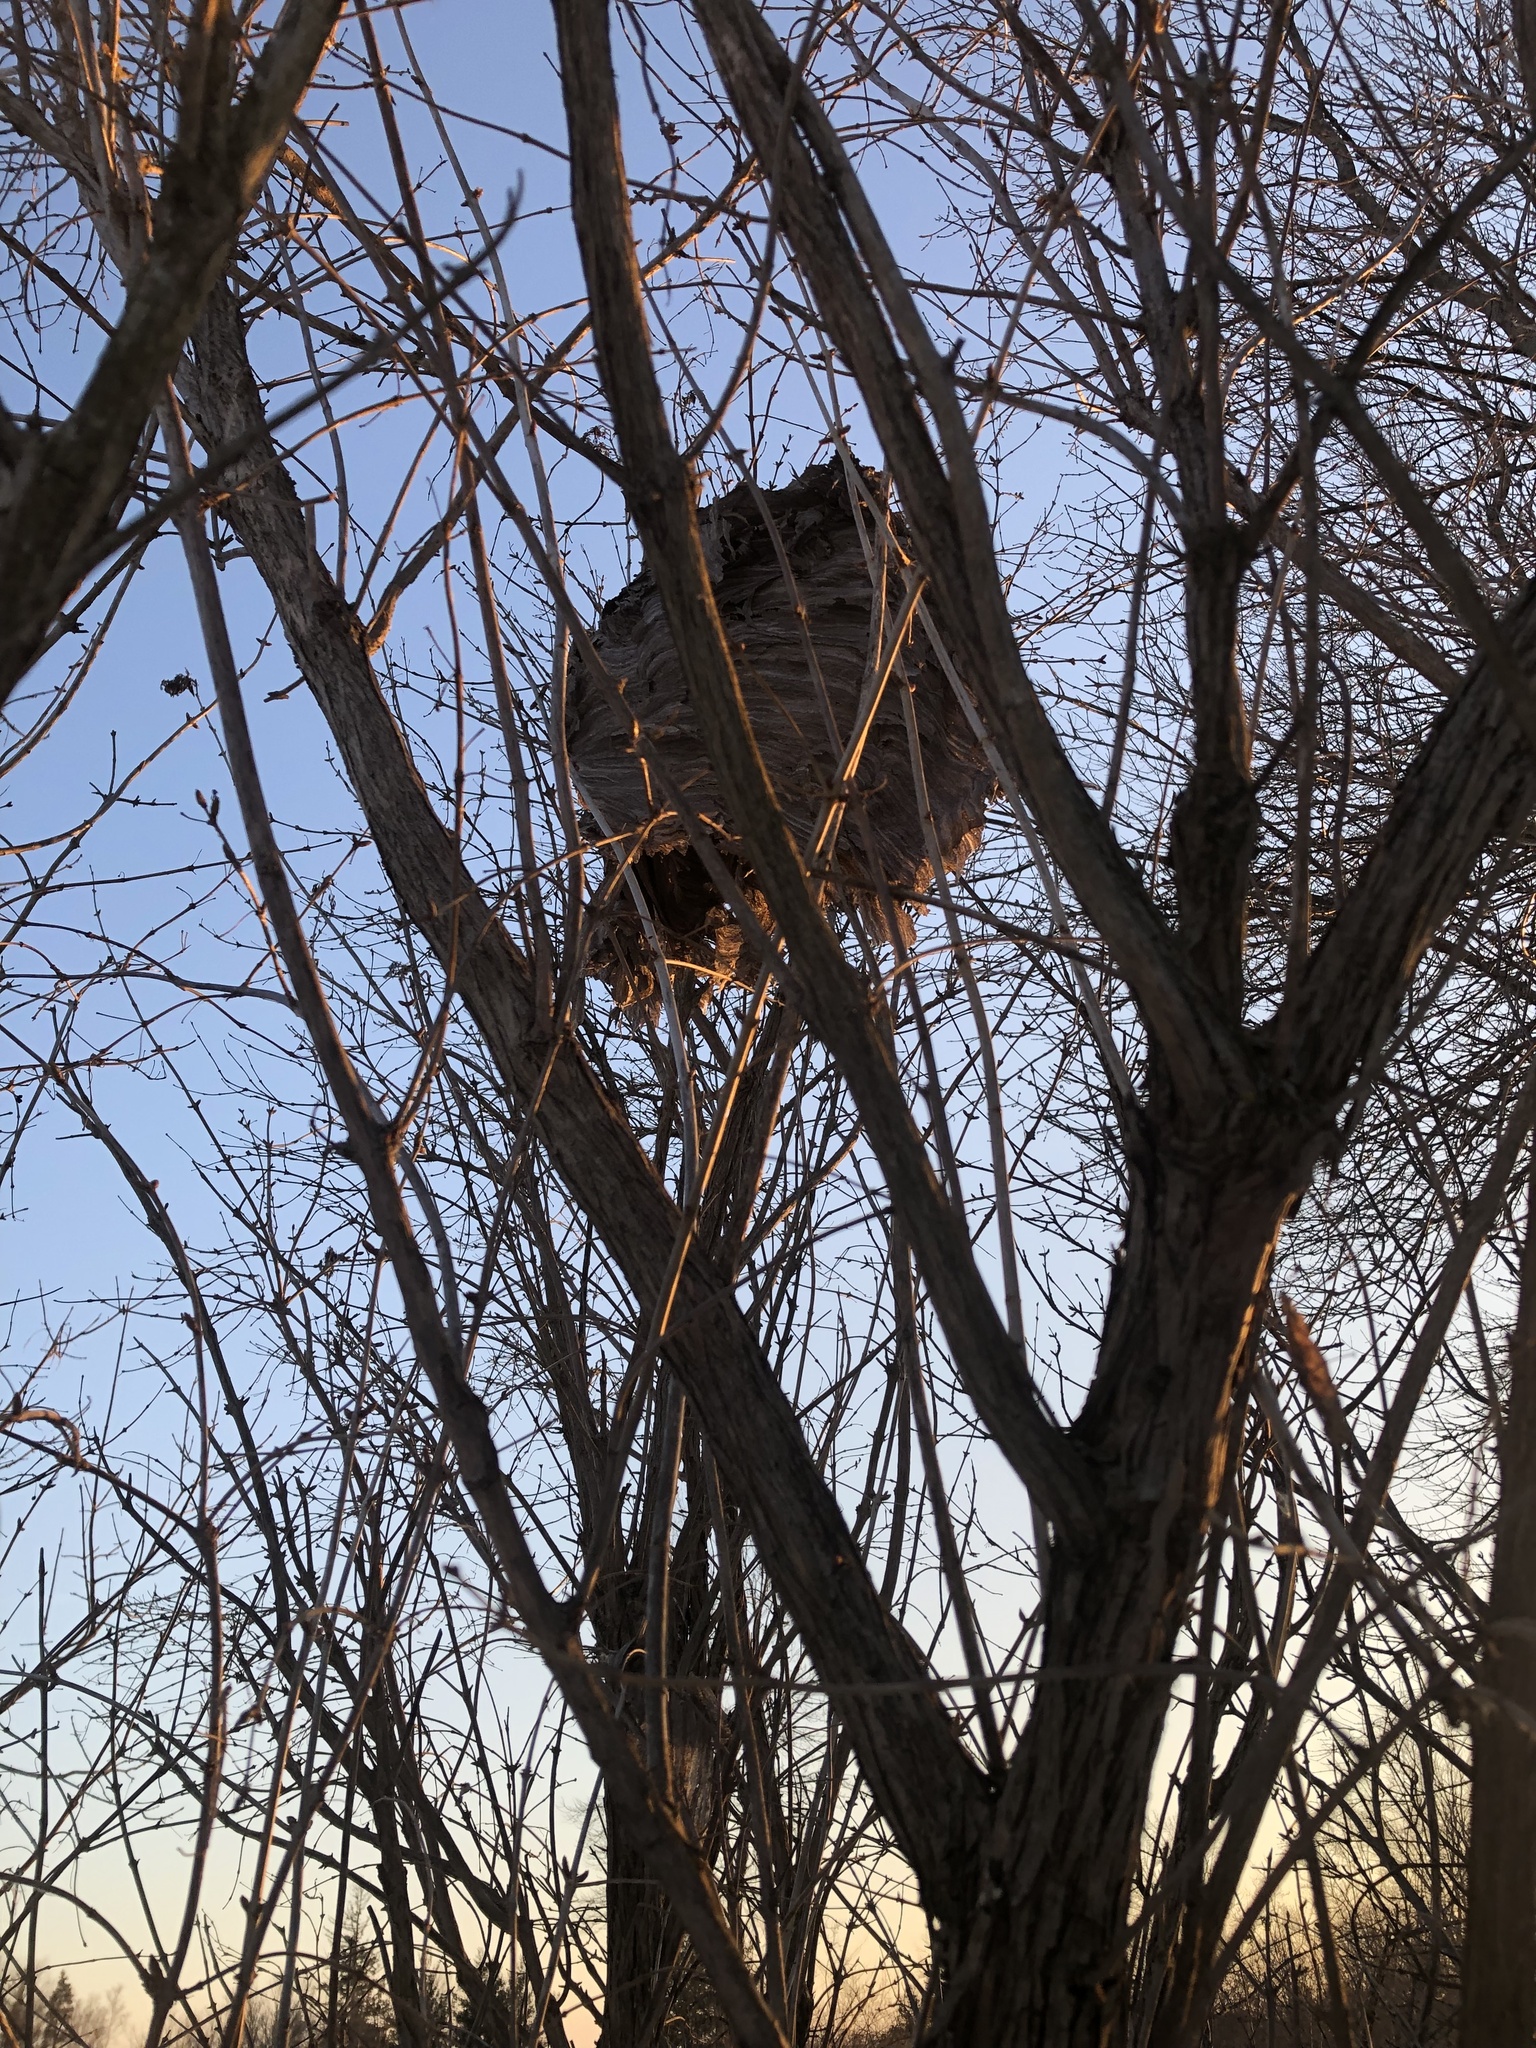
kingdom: Animalia
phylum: Arthropoda
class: Insecta
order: Hymenoptera
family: Vespidae
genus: Dolichovespula
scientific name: Dolichovespula
